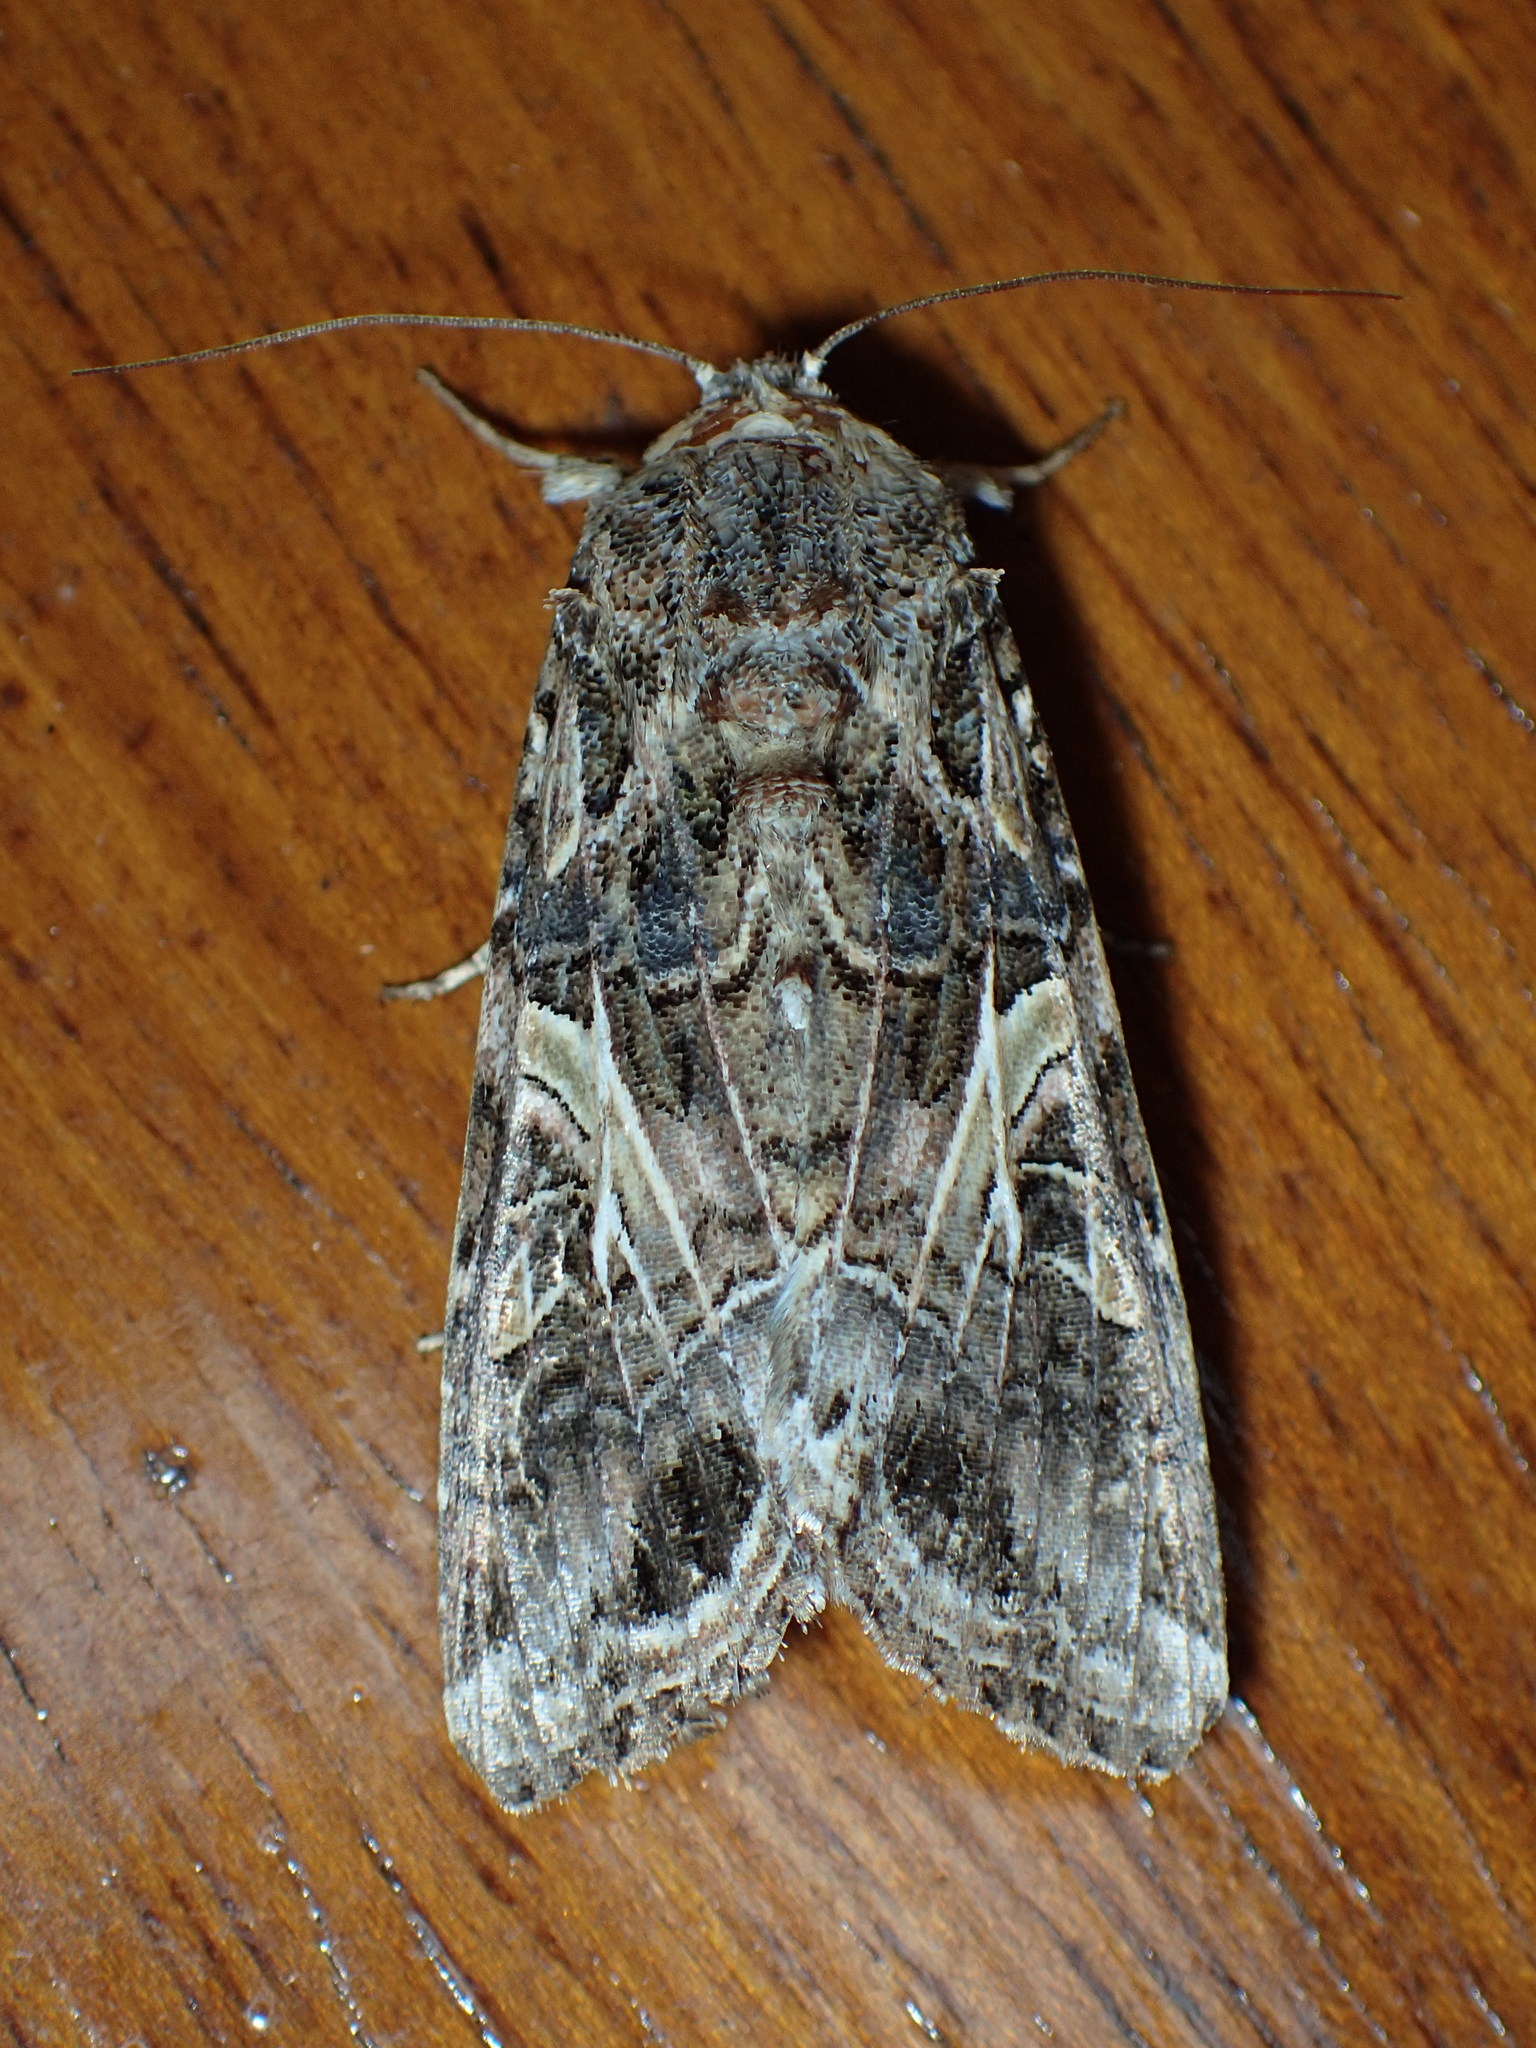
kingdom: Animalia
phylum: Arthropoda
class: Insecta
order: Lepidoptera
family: Noctuidae
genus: Spodoptera
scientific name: Spodoptera ornithogalli
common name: Yellow-striped armyworm
